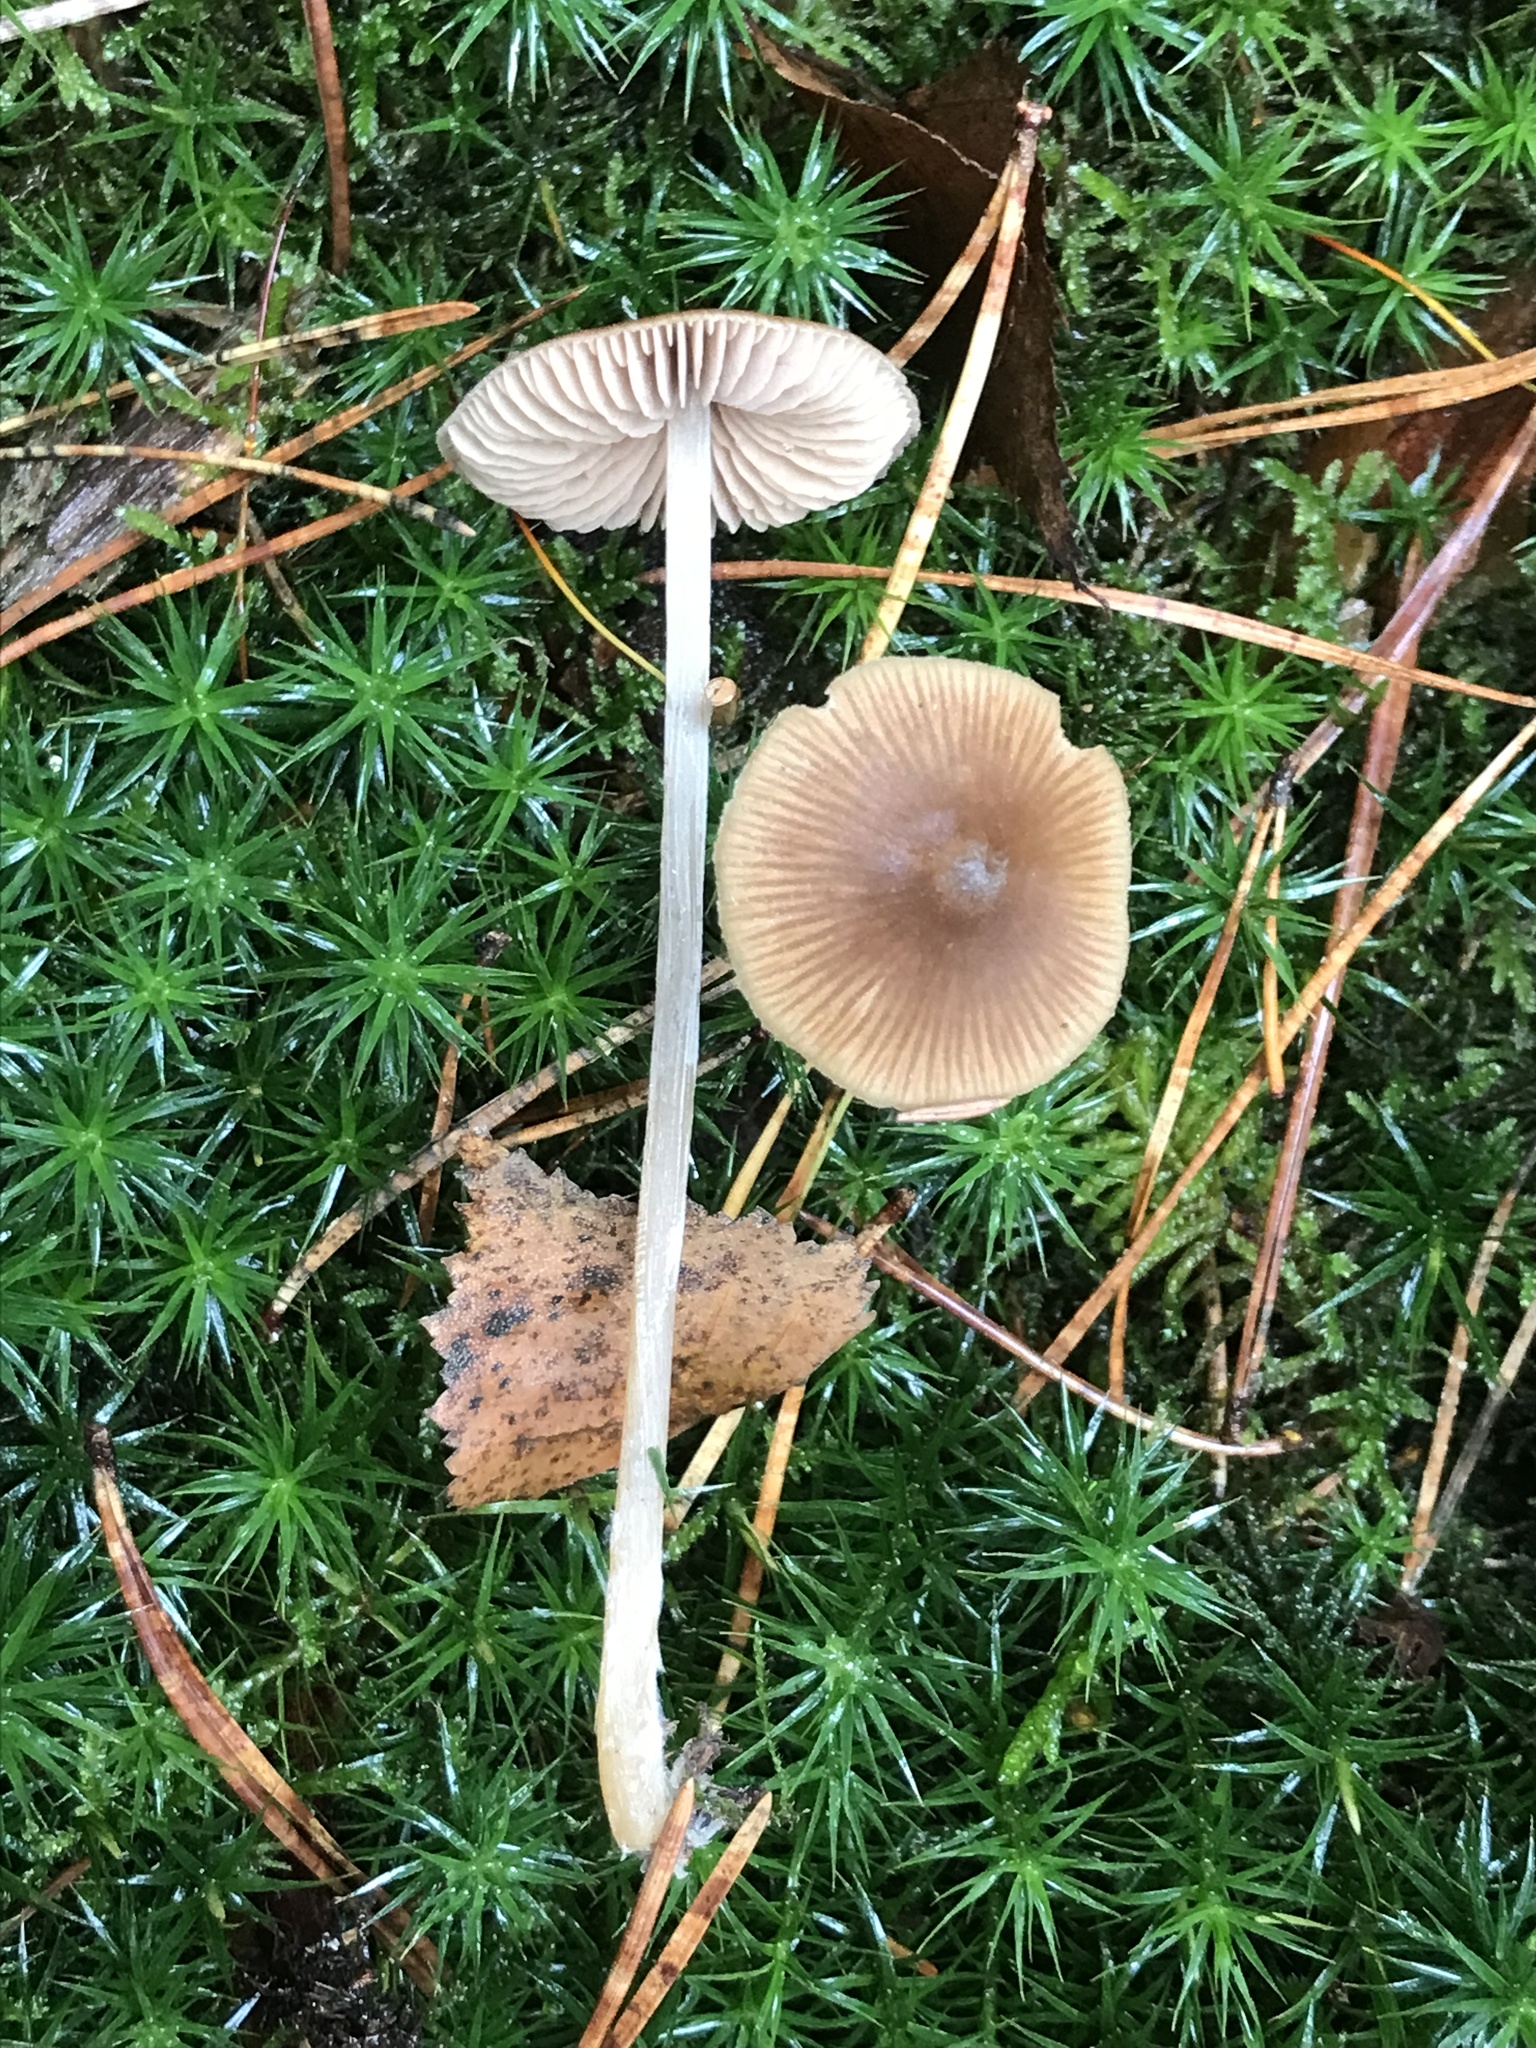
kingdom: Fungi
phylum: Basidiomycota
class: Agaricomycetes
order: Agaricales
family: Entolomataceae
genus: Nolanea
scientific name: Nolanea
